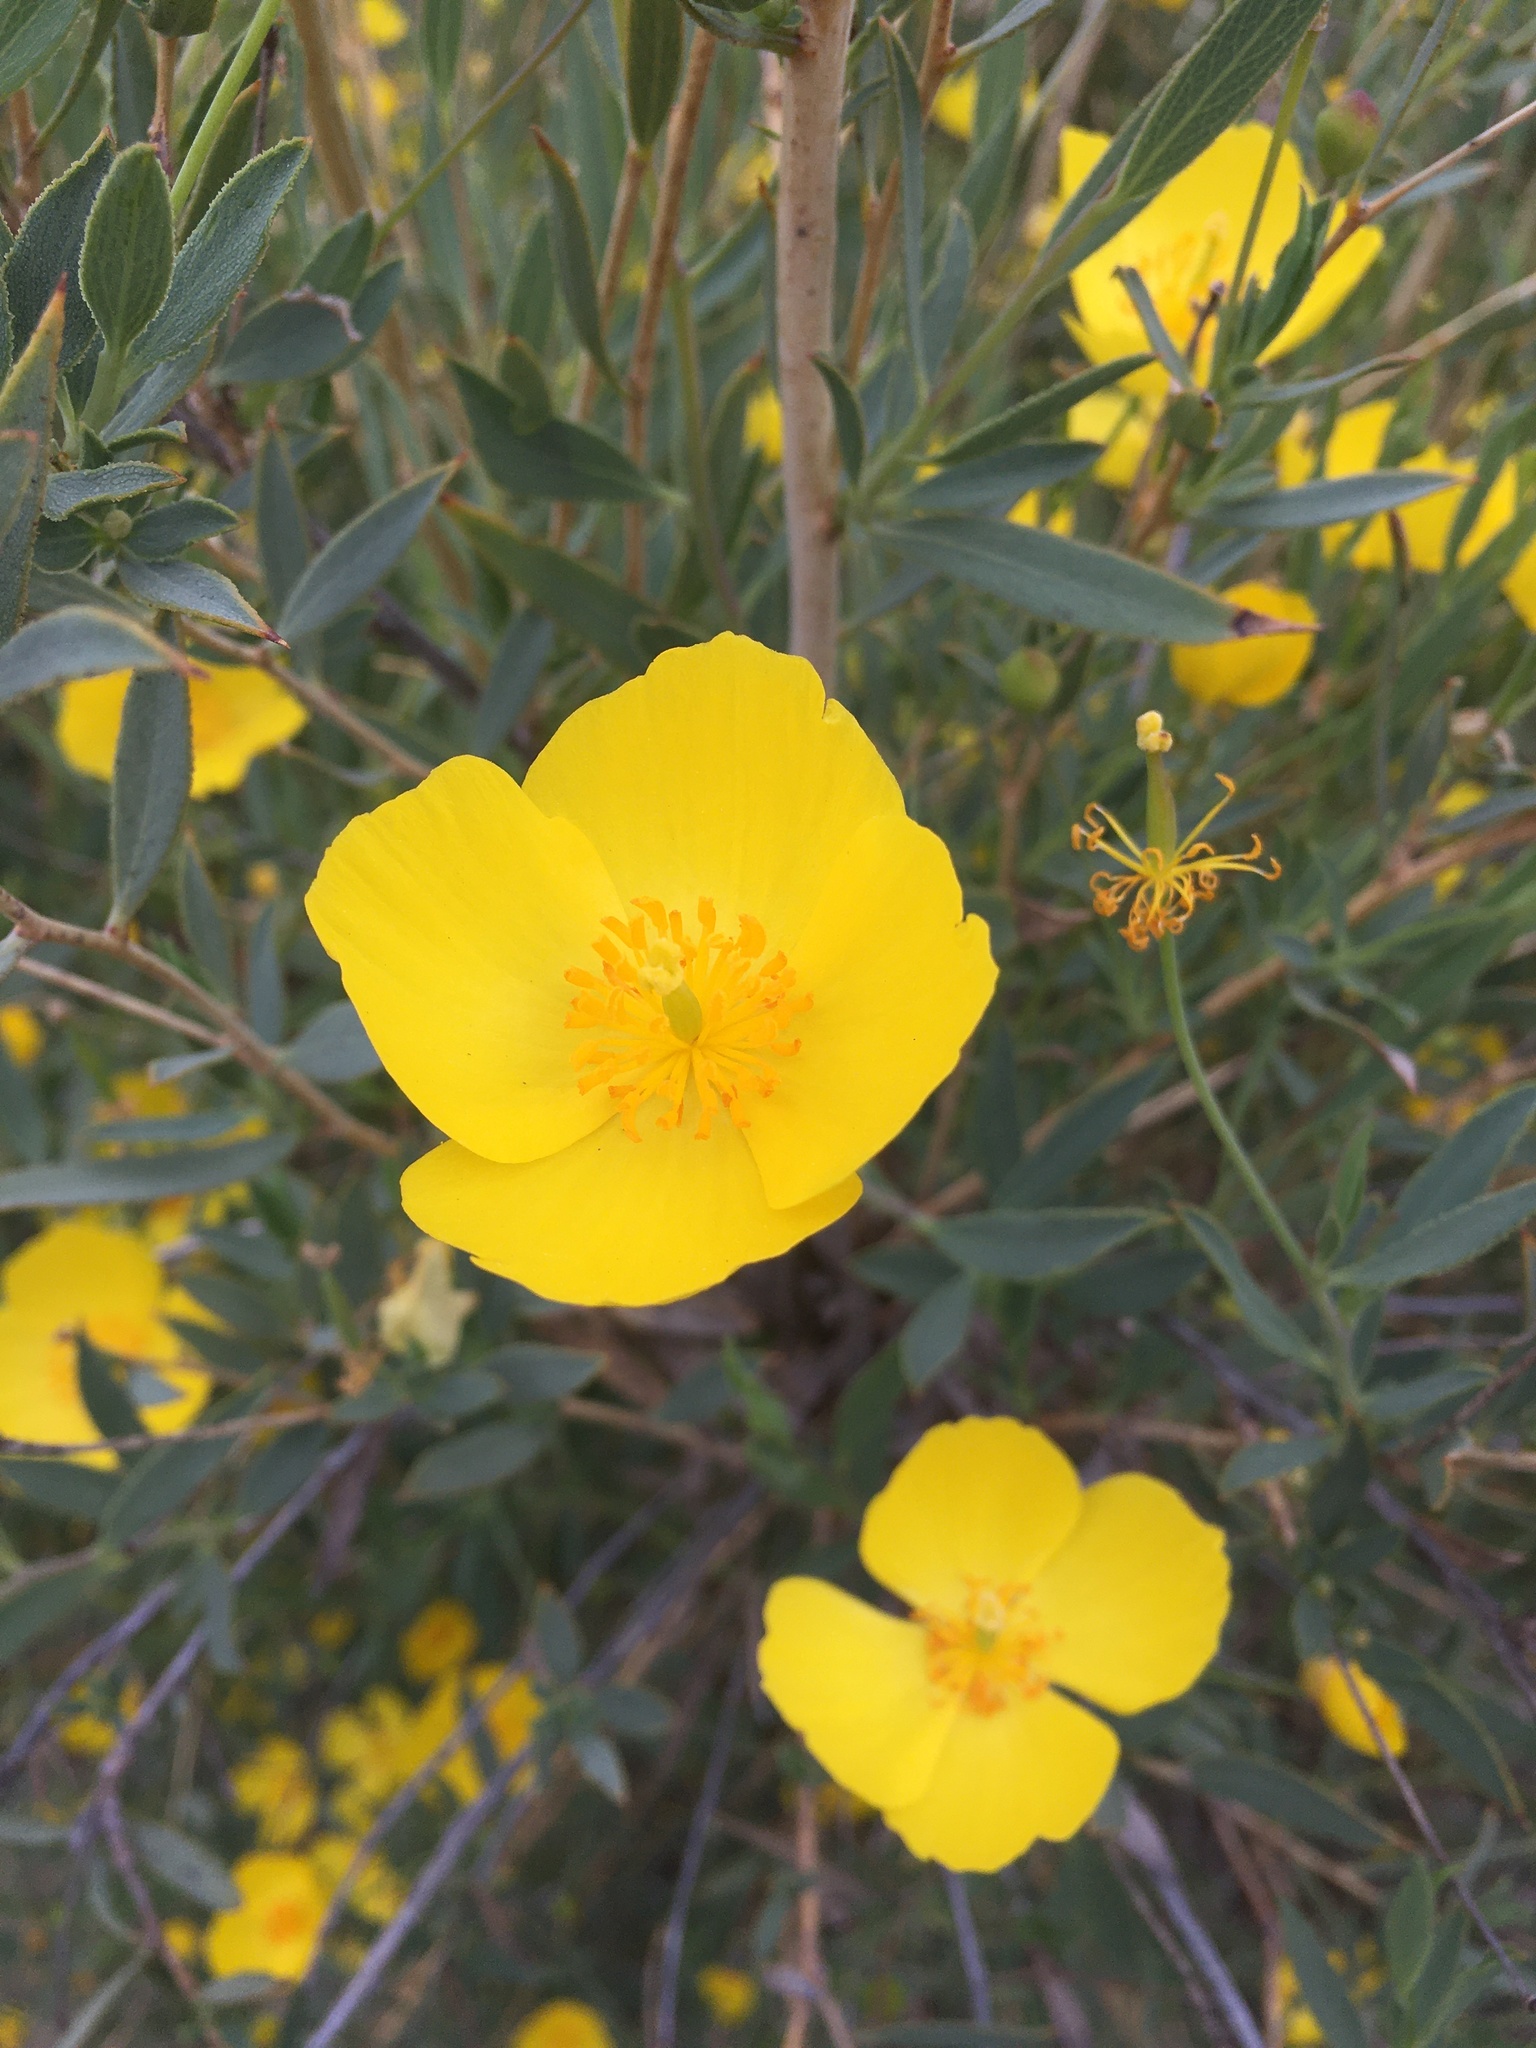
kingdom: Plantae
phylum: Tracheophyta
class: Magnoliopsida
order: Ranunculales
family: Papaveraceae
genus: Dendromecon
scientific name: Dendromecon rigida
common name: Tree poppy
